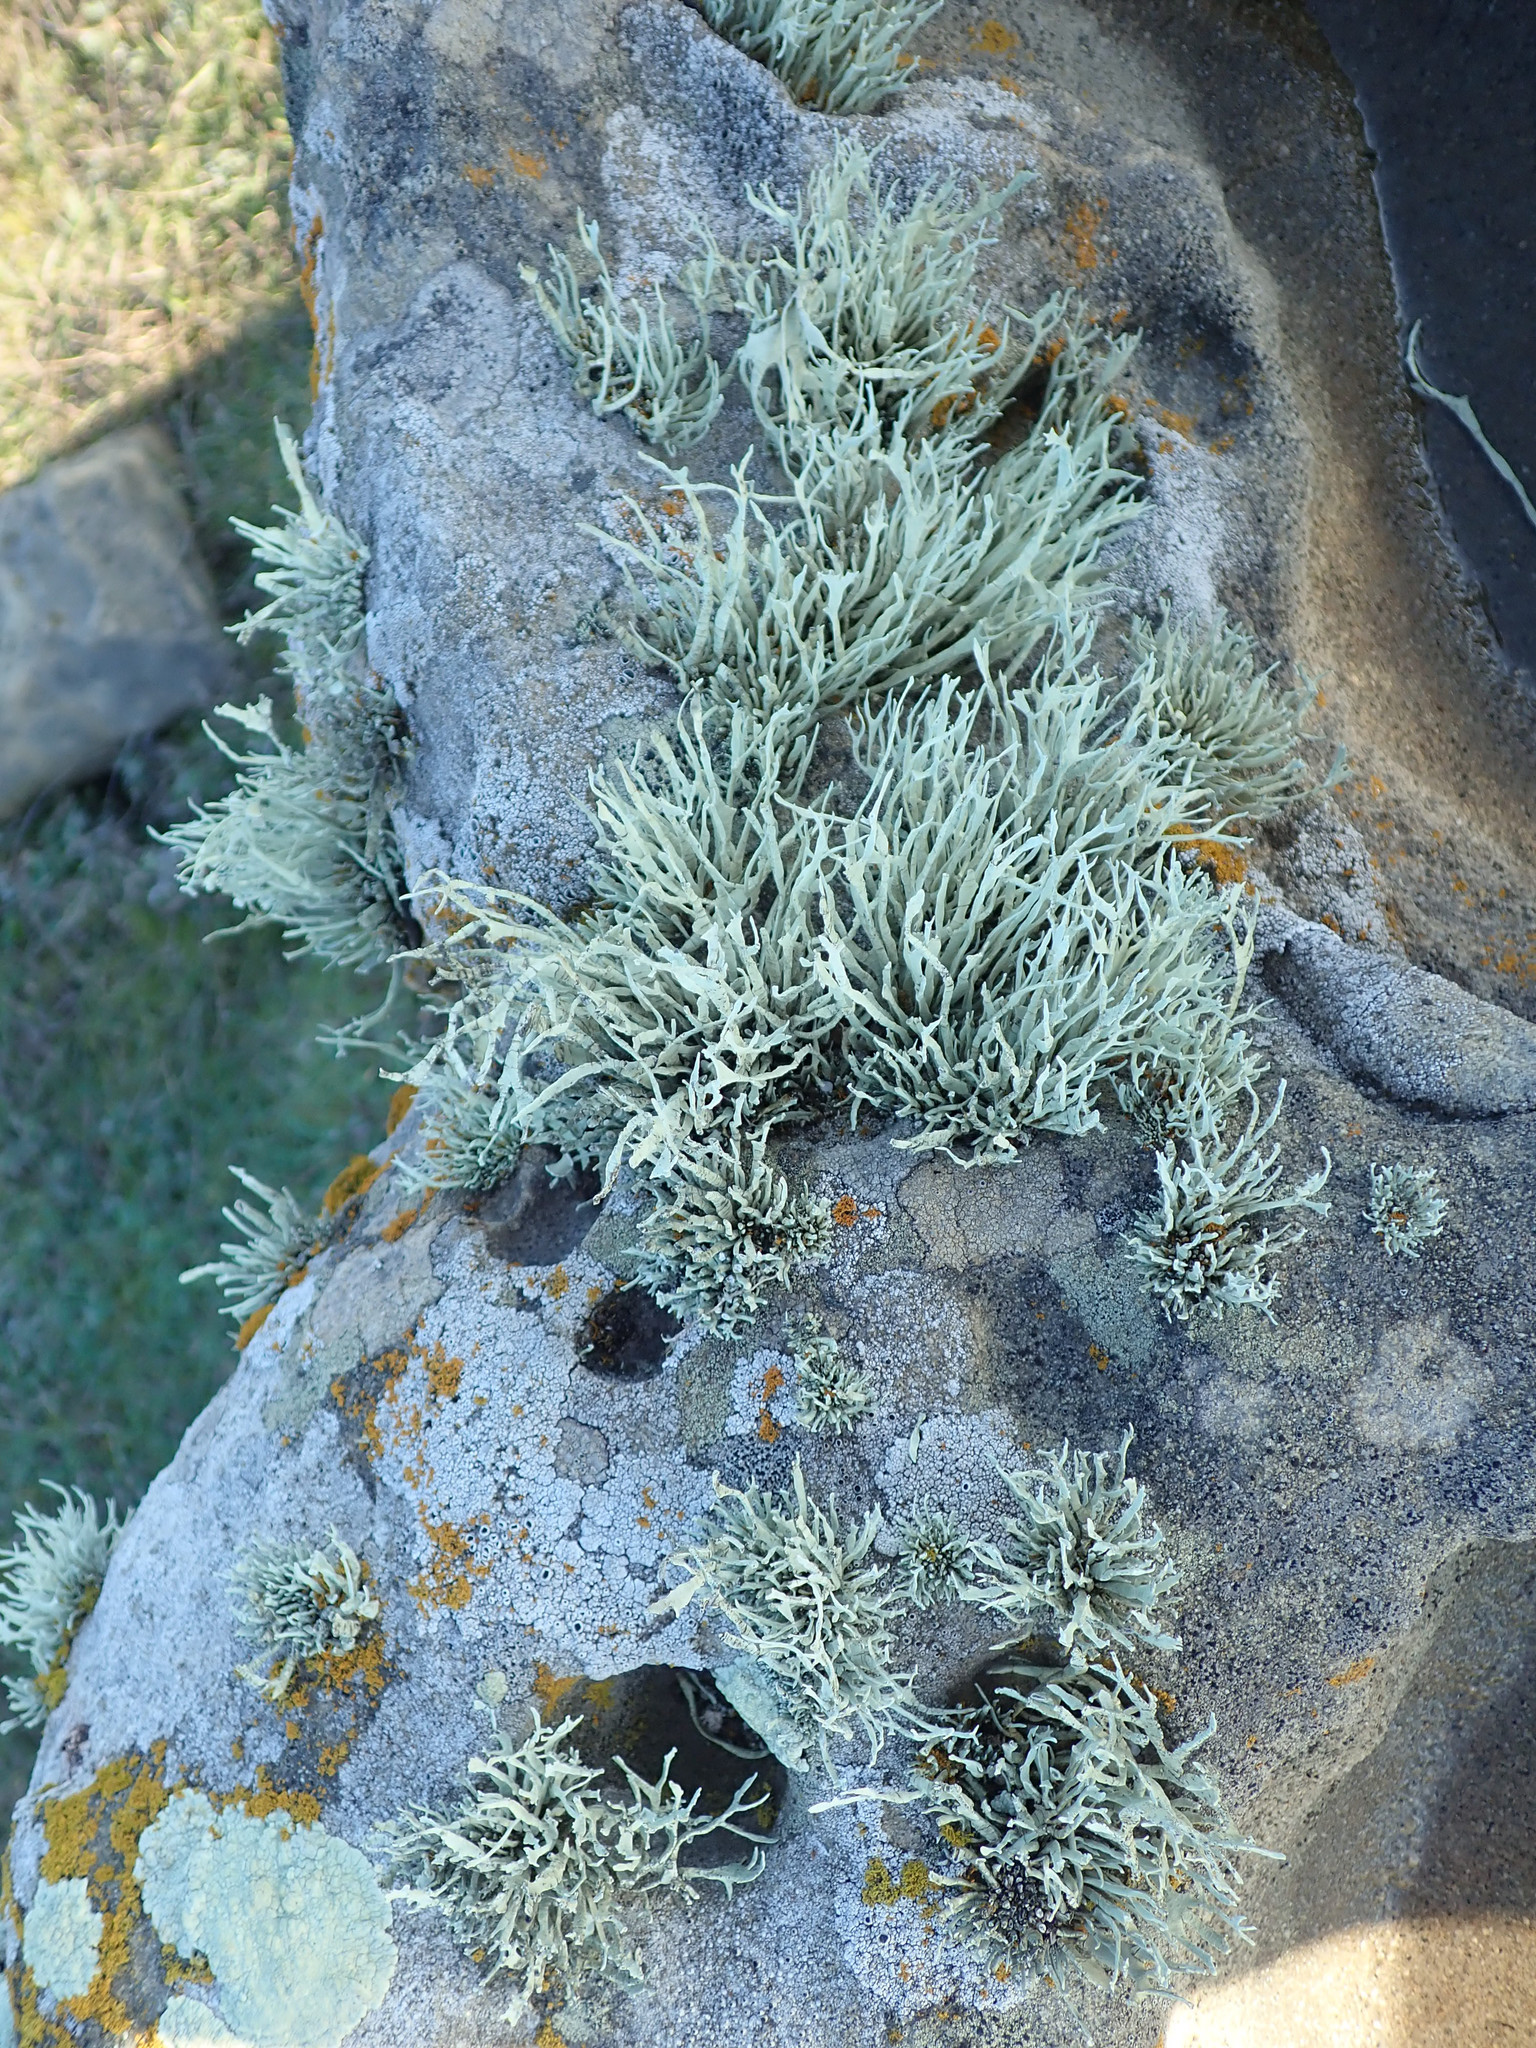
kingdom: Fungi
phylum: Ascomycota
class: Lecanoromycetes
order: Lecanorales
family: Ramalinaceae
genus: Niebla
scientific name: Niebla homalea
